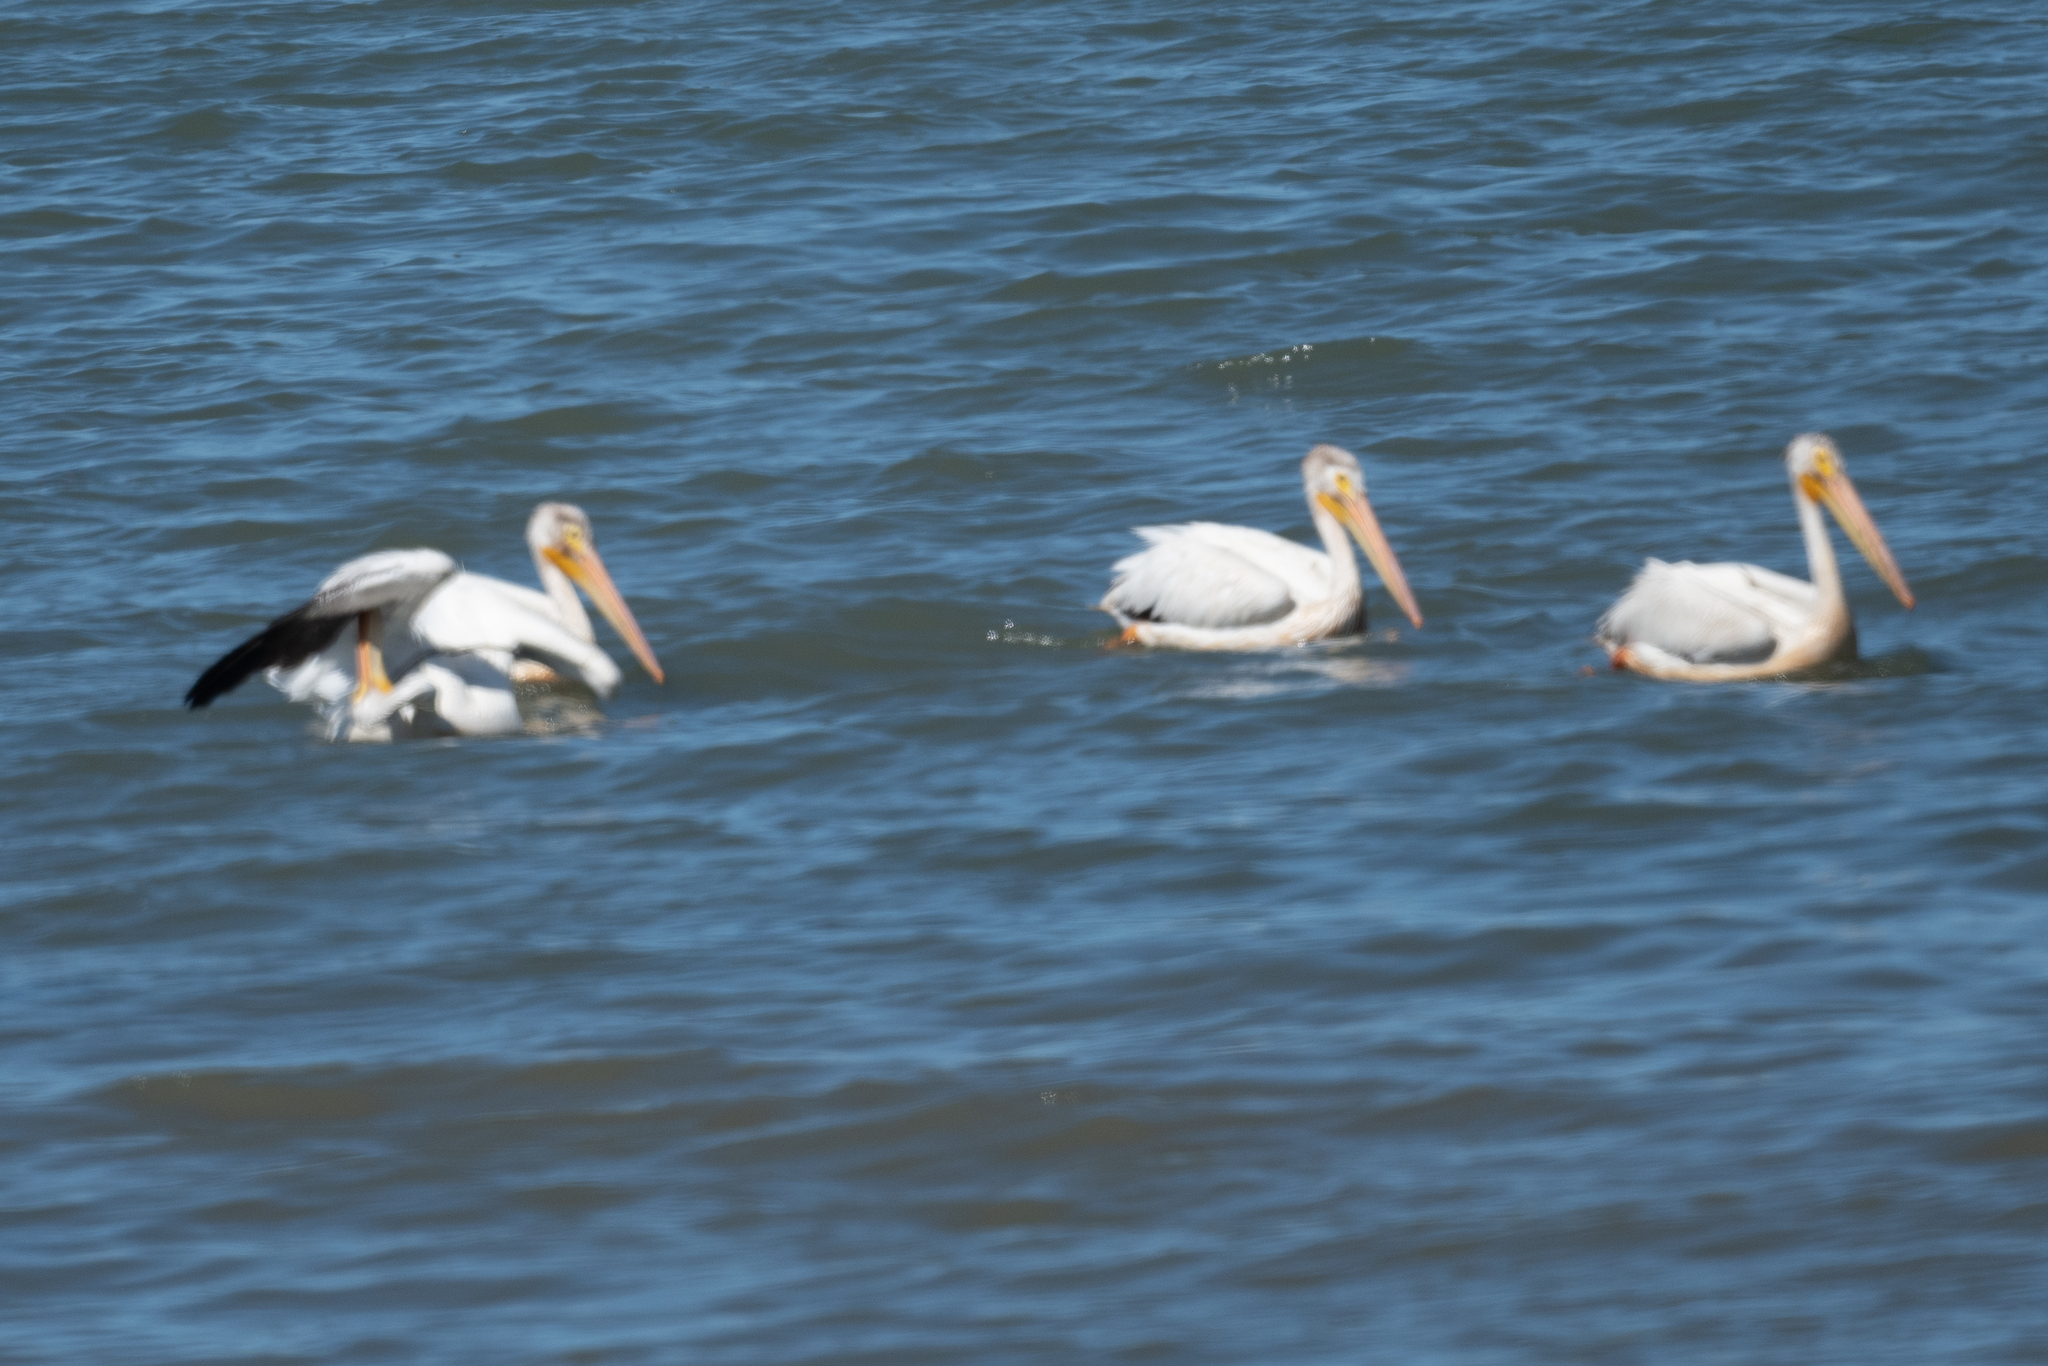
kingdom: Animalia
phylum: Chordata
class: Aves
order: Pelecaniformes
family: Pelecanidae
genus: Pelecanus
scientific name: Pelecanus erythrorhynchos
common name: American white pelican
